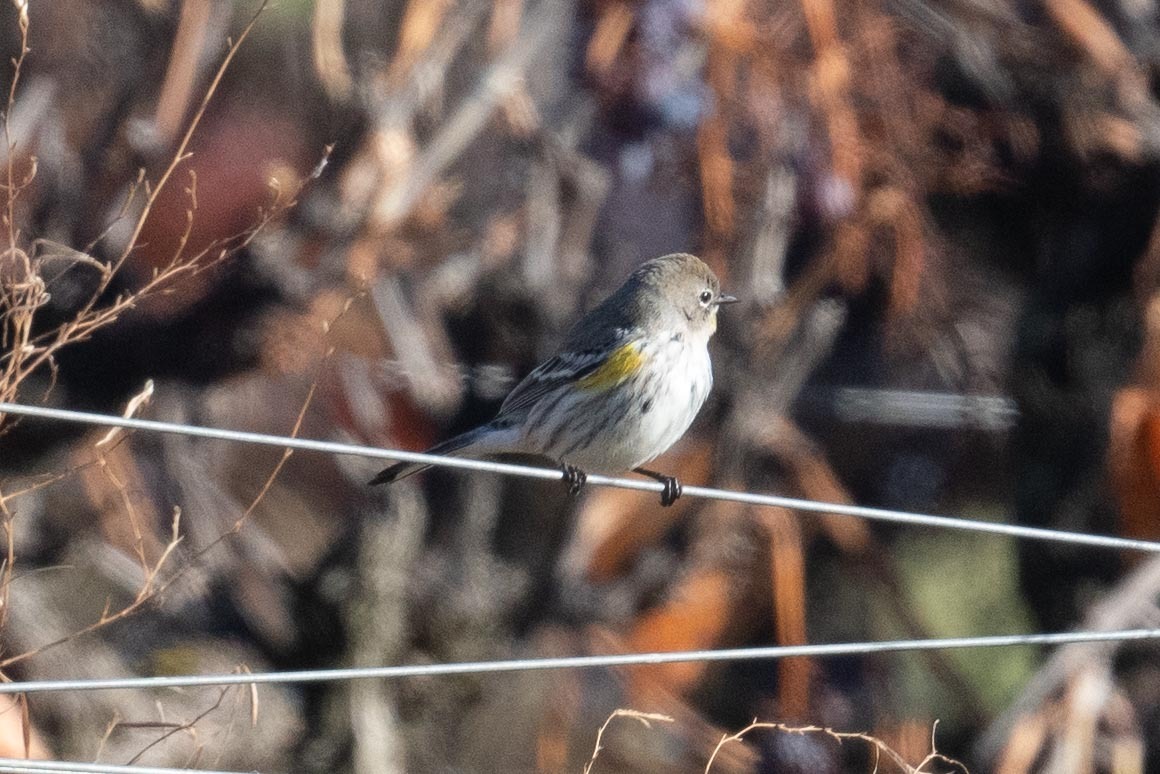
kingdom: Animalia
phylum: Chordata
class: Aves
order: Passeriformes
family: Parulidae
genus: Setophaga
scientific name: Setophaga coronata
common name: Myrtle warbler
